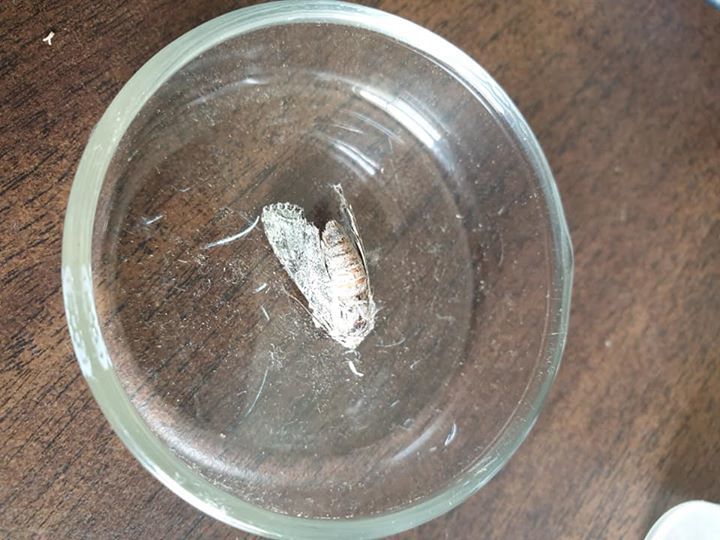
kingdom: Animalia
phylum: Arthropoda
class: Insecta
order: Lepidoptera
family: Noctuidae
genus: Ichneutica
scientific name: Ichneutica mutans
